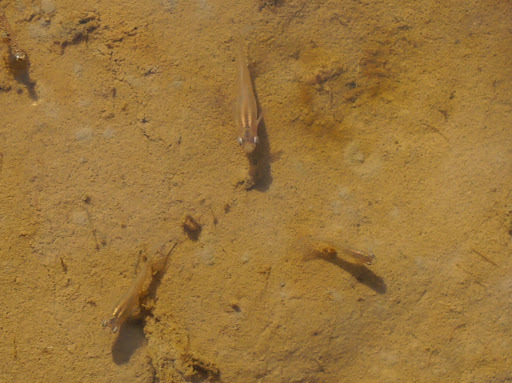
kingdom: Animalia
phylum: Chordata
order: Cyprinodontiformes
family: Poeciliidae
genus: Gambusia
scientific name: Gambusia holbrooki
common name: Eastern mosquitofish
